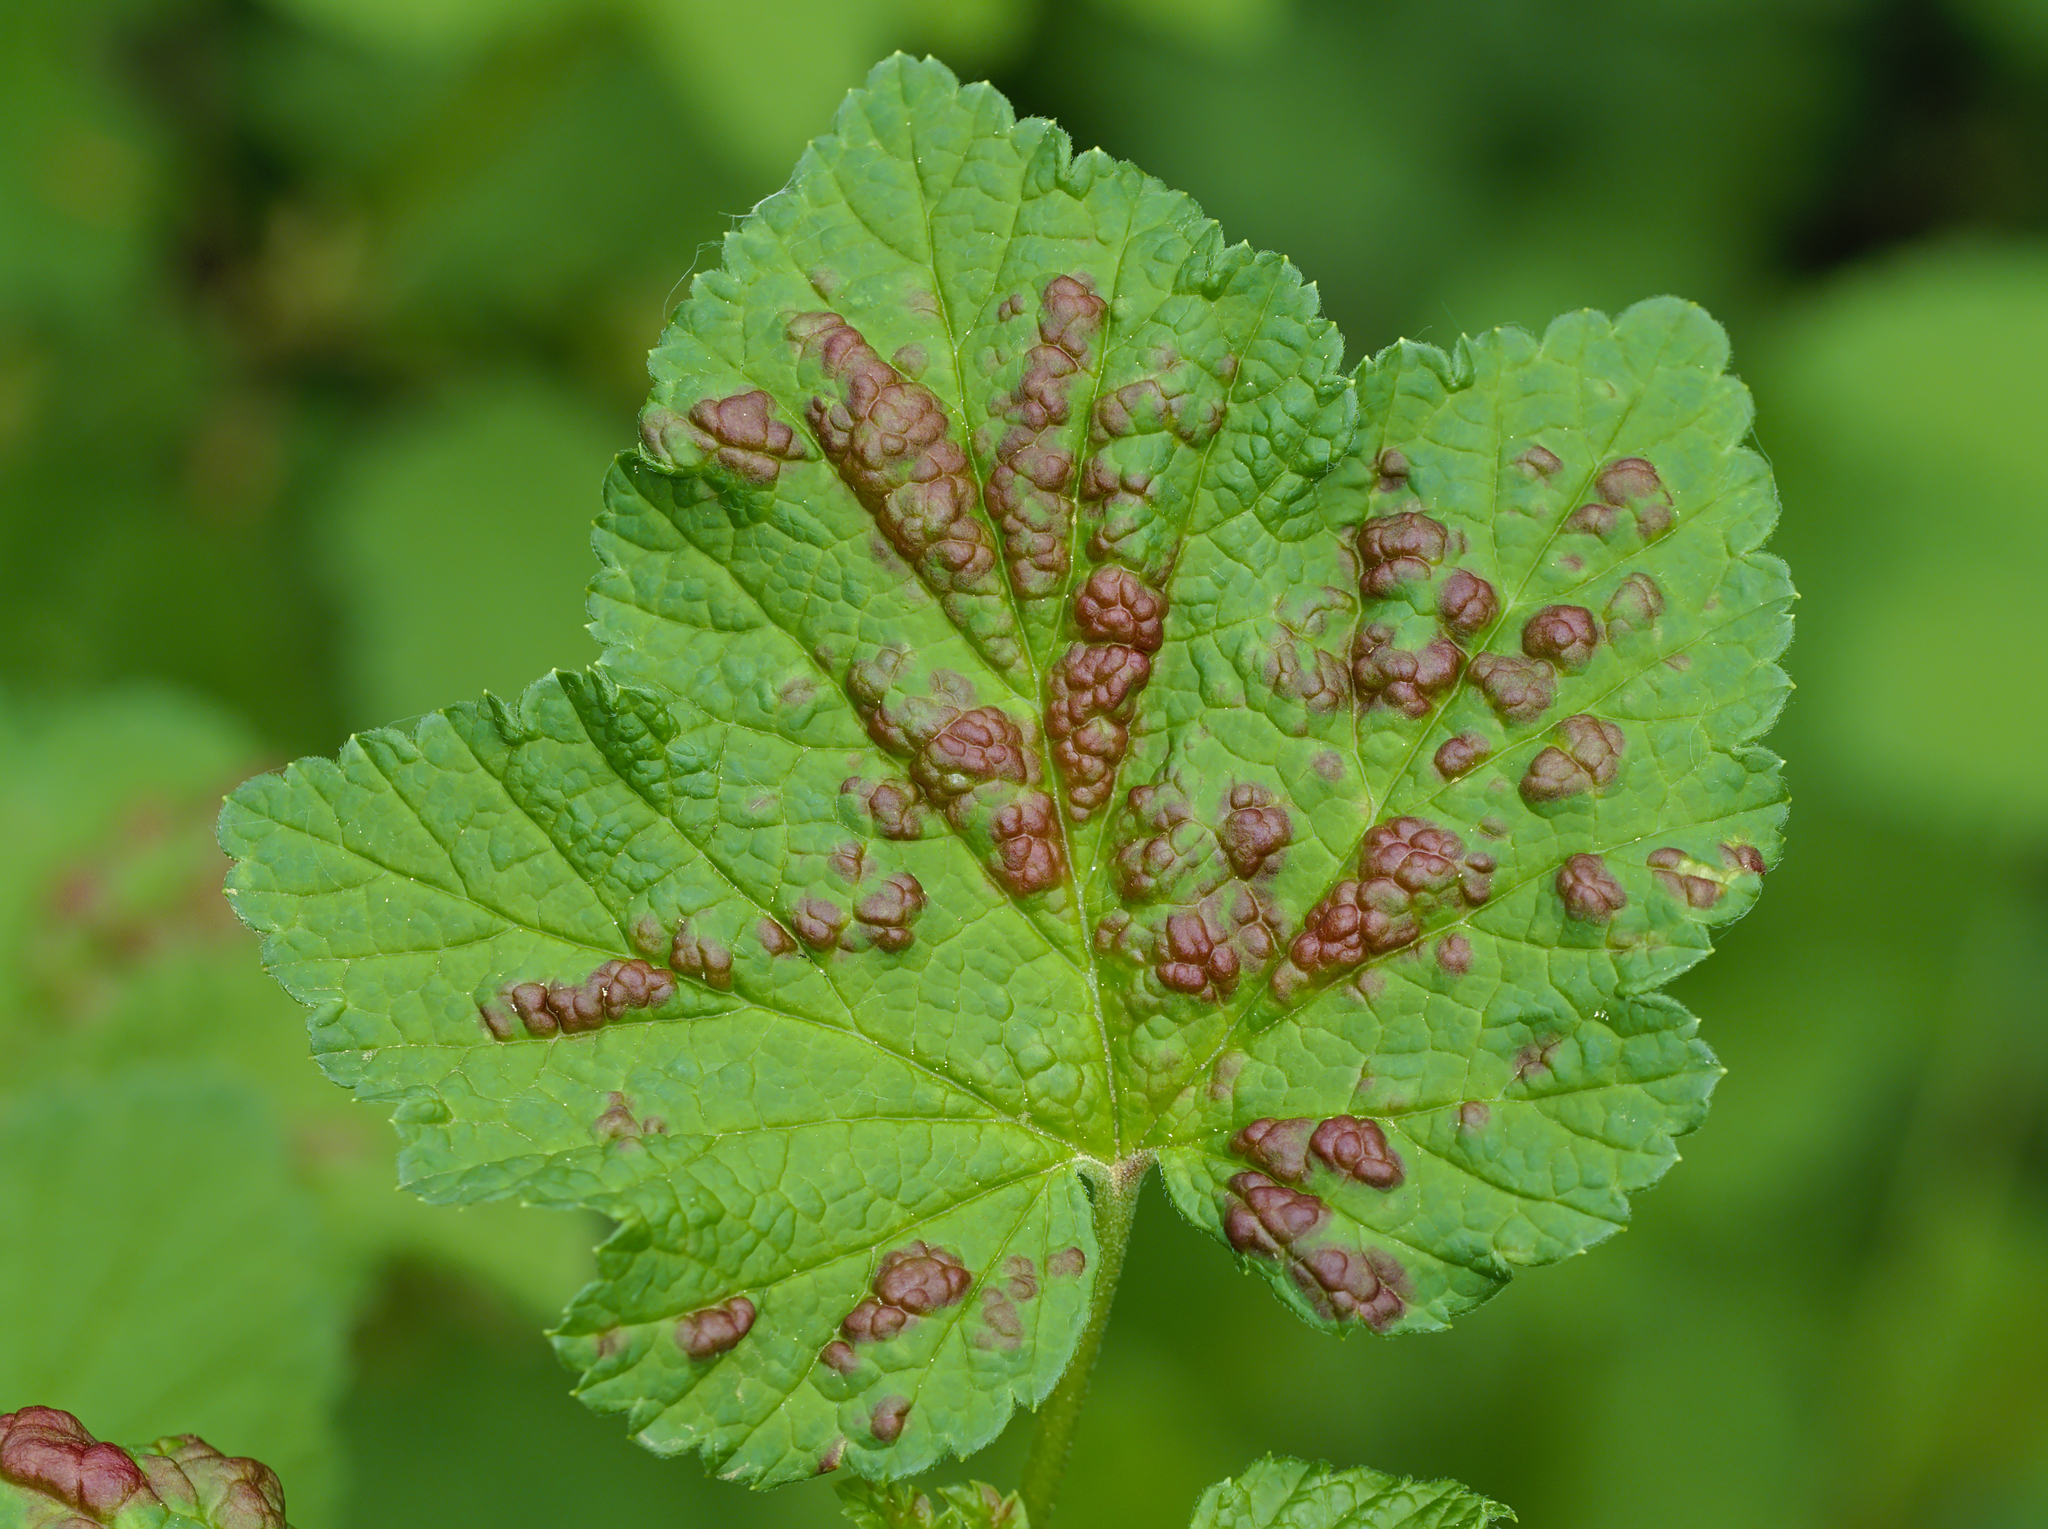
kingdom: Animalia
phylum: Arthropoda
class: Insecta
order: Hemiptera
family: Aphididae
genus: Cryptomyzus
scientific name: Cryptomyzus ribis
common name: Currant aphid
